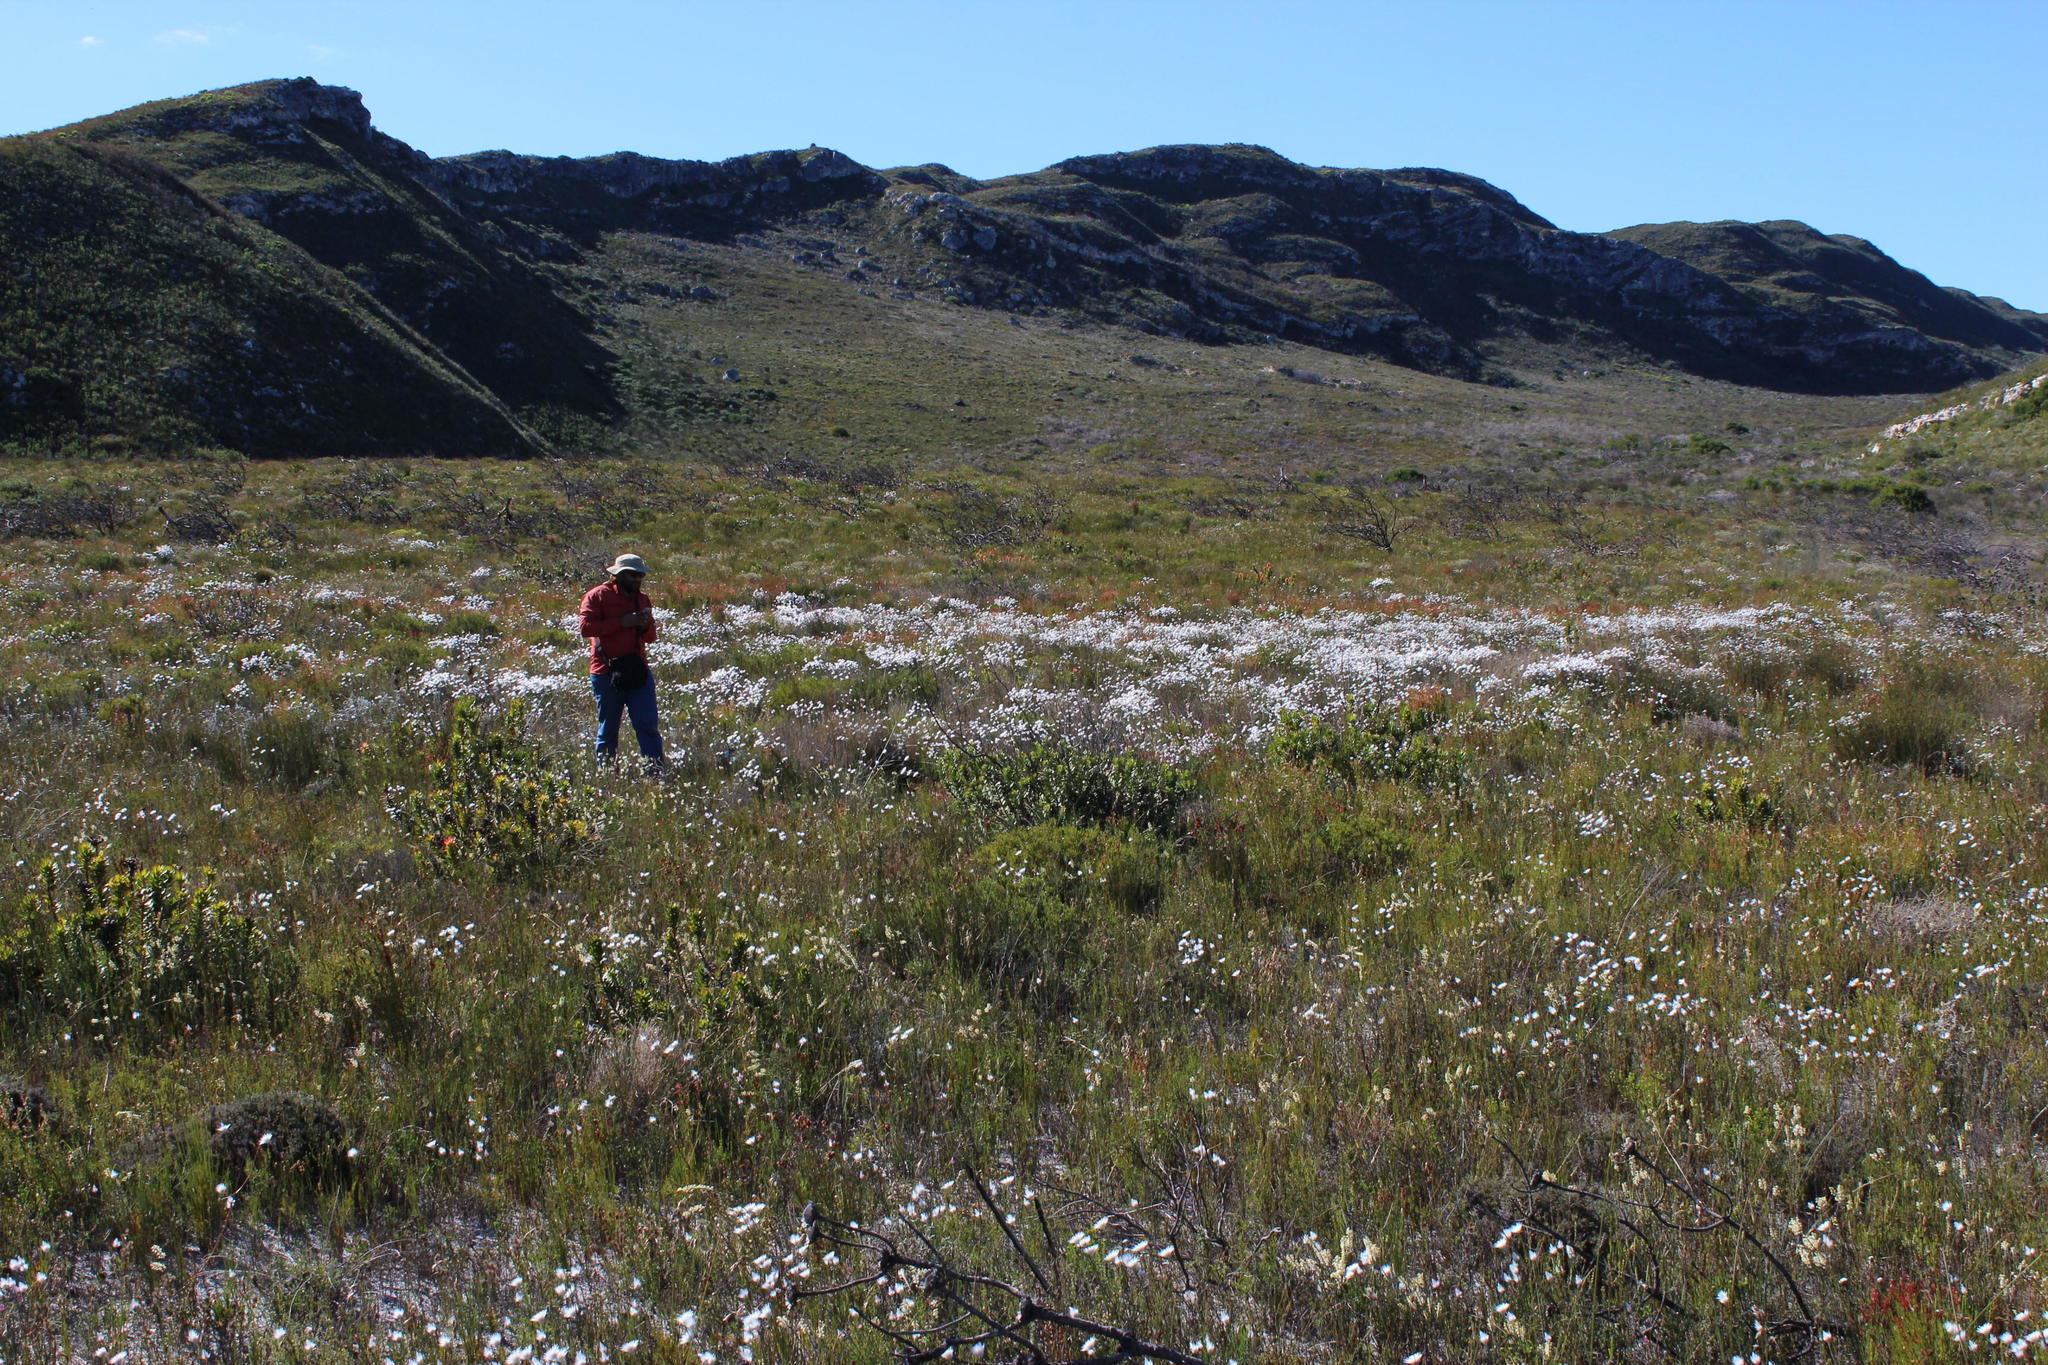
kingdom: Plantae
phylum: Tracheophyta
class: Magnoliopsida
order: Asterales
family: Asteraceae
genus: Edmondia
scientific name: Edmondia sesamoides
